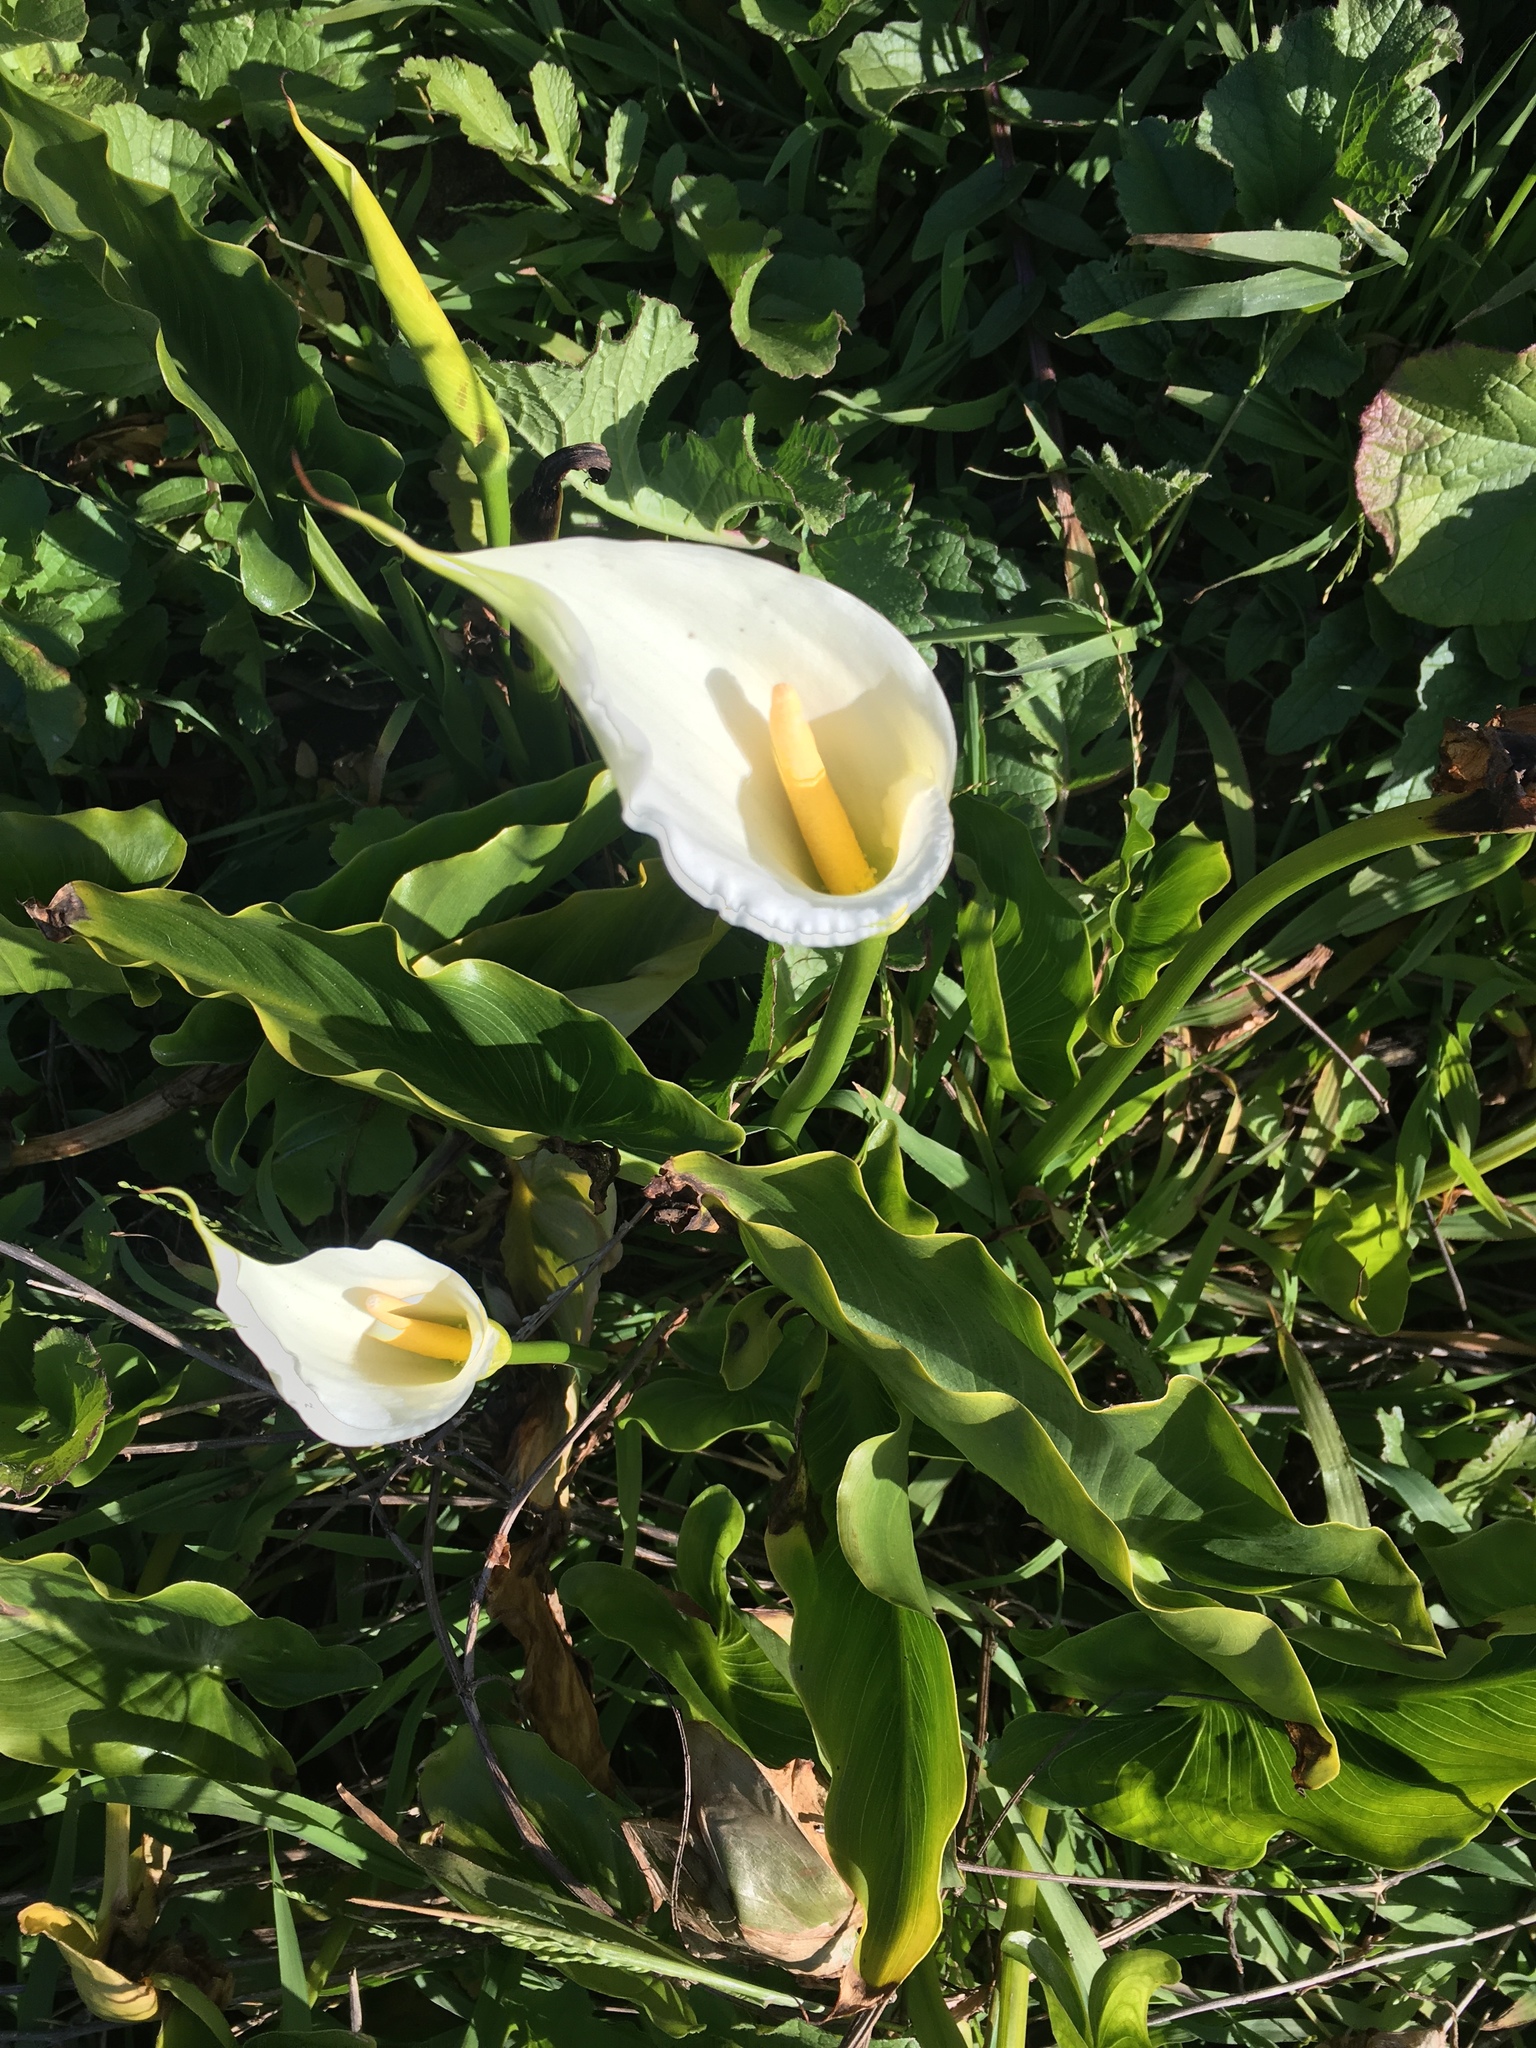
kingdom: Plantae
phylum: Tracheophyta
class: Liliopsida
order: Alismatales
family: Araceae
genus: Zantedeschia
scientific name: Zantedeschia aethiopica
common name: Altar-lily
